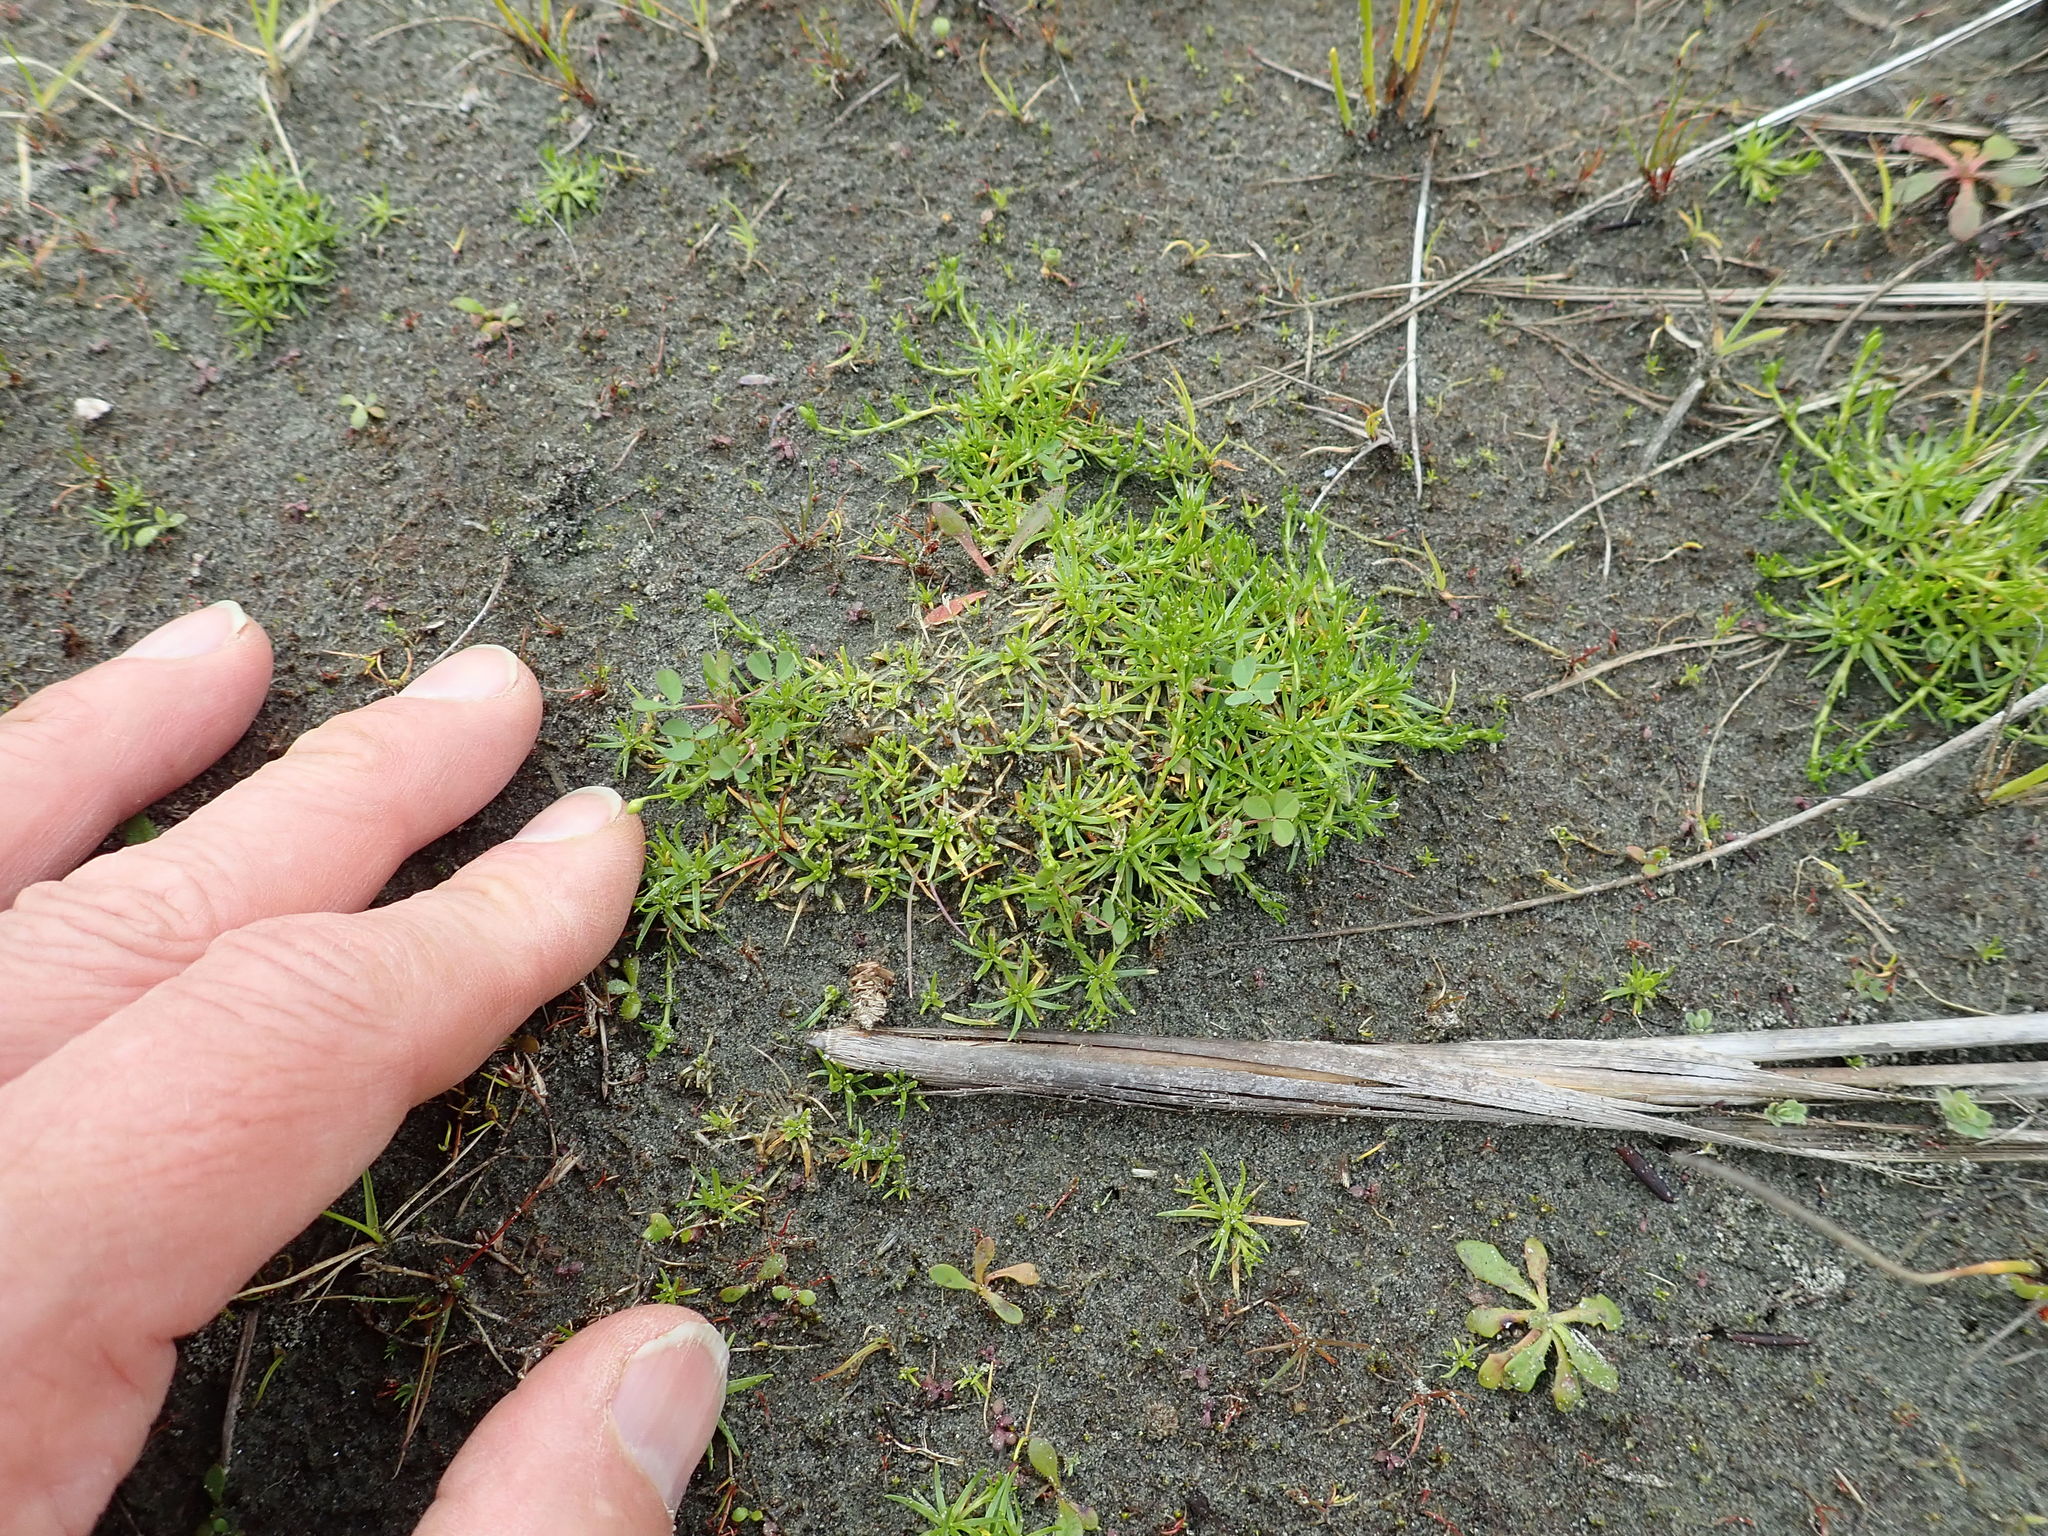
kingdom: Plantae
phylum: Tracheophyta
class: Magnoliopsida
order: Caryophyllales
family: Caryophyllaceae
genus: Sagina
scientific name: Sagina procumbens
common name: Procumbent pearlwort
